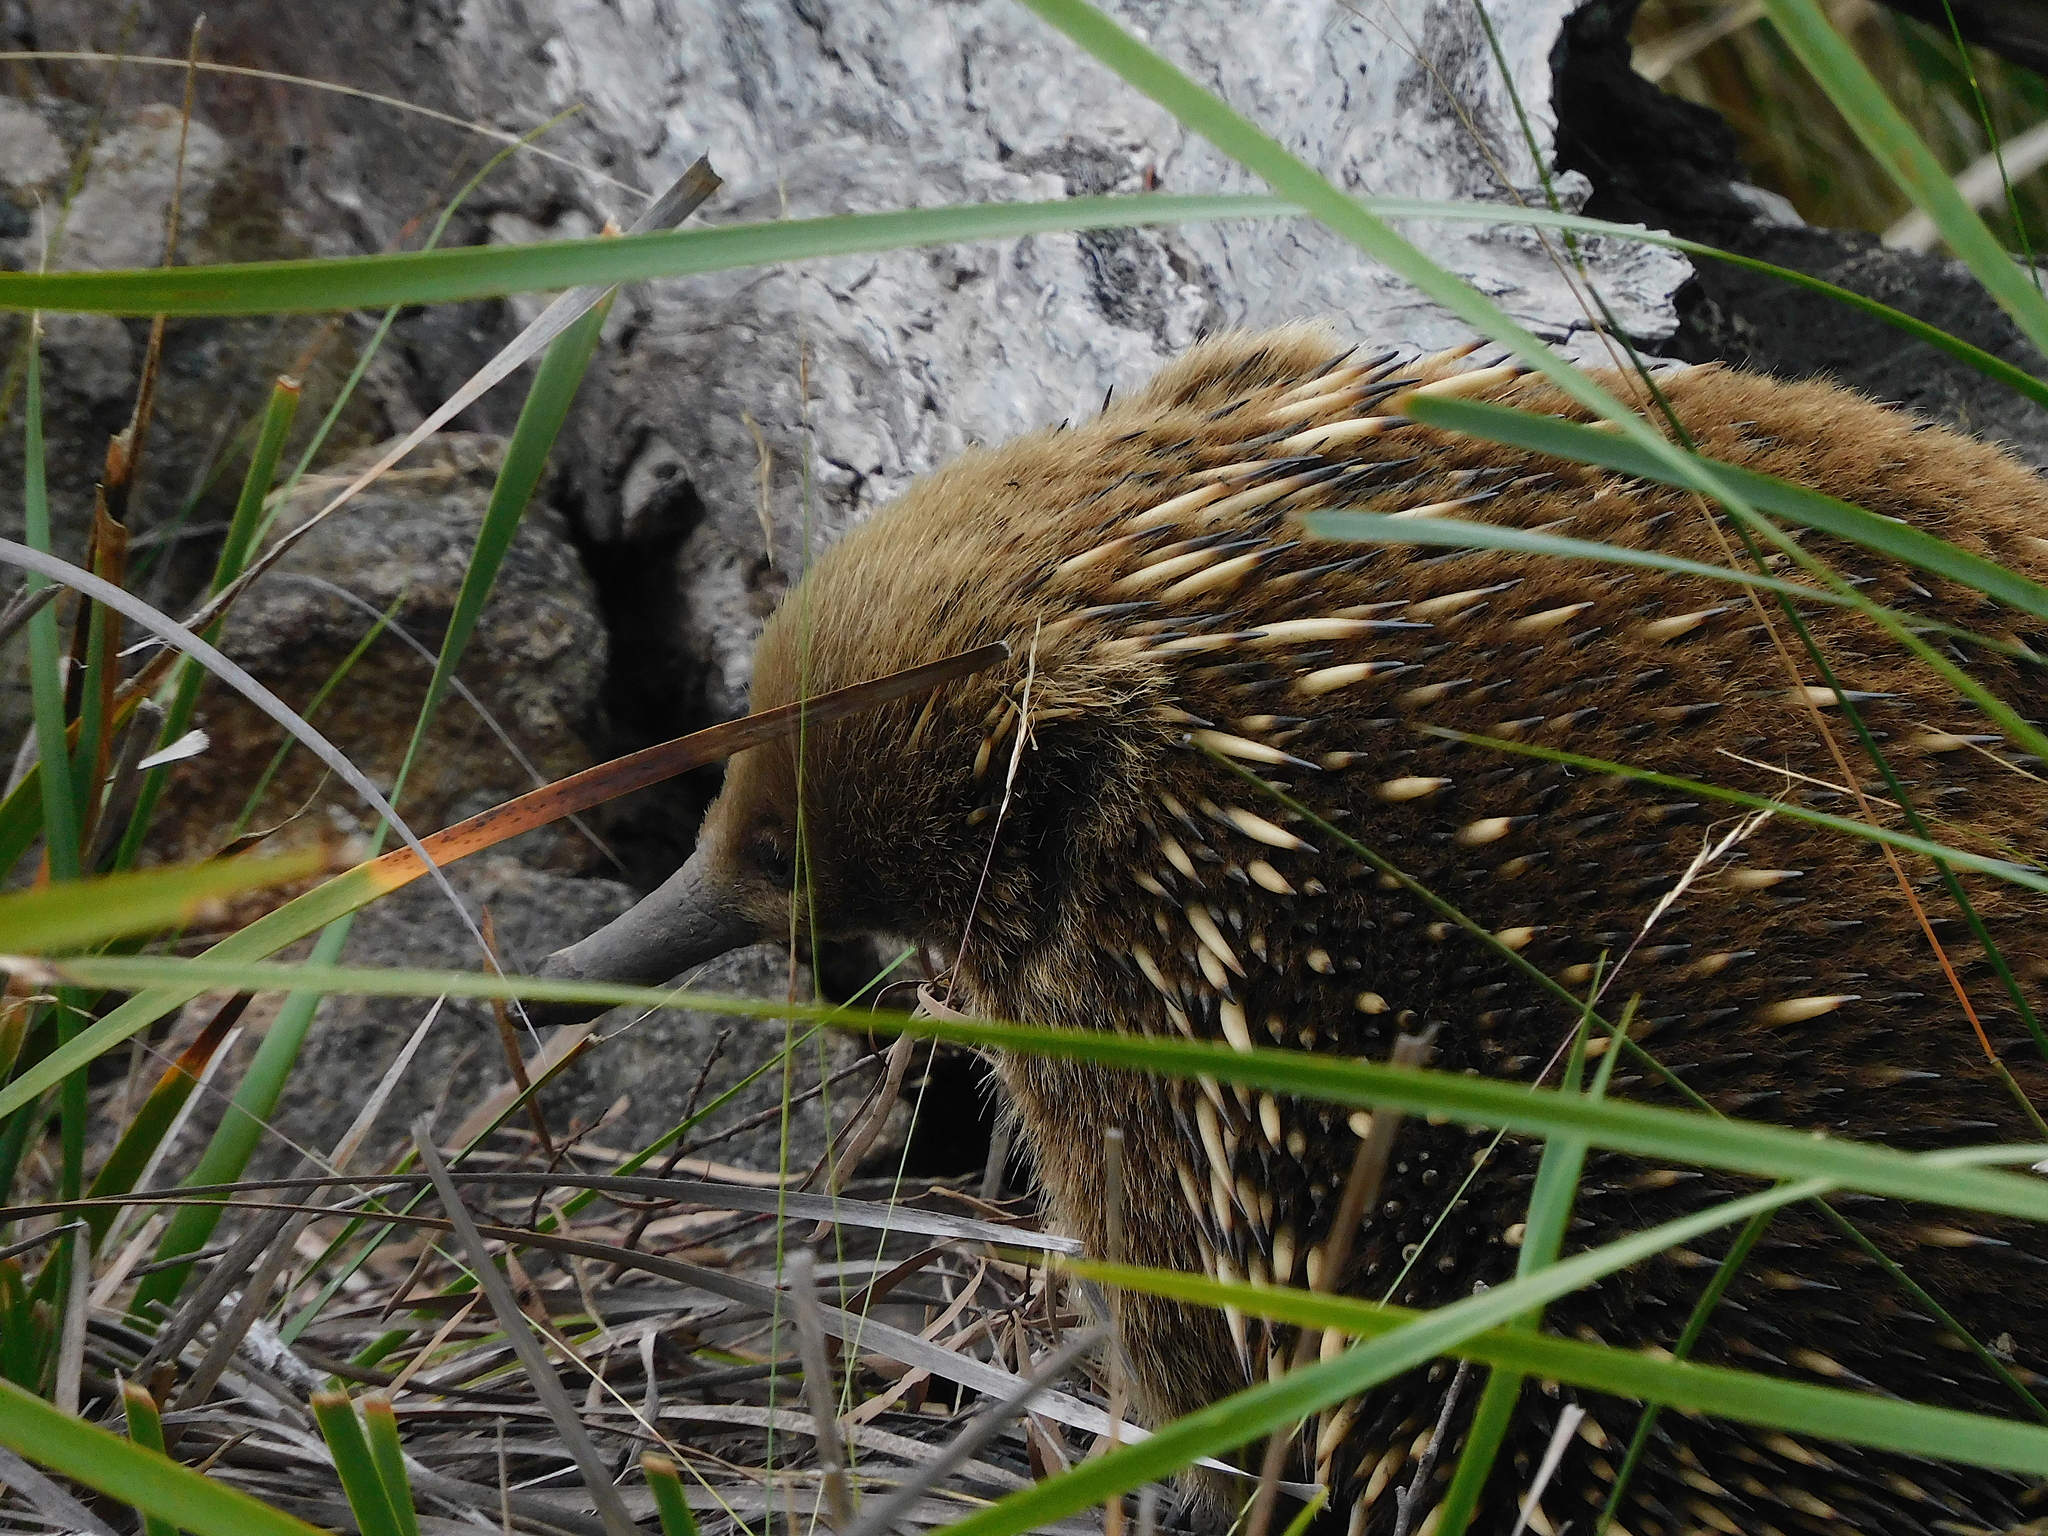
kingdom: Animalia
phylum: Chordata
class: Mammalia
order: Monotremata
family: Tachyglossidae
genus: Tachyglossus
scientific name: Tachyglossus aculeatus
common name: Short-beaked echidna
